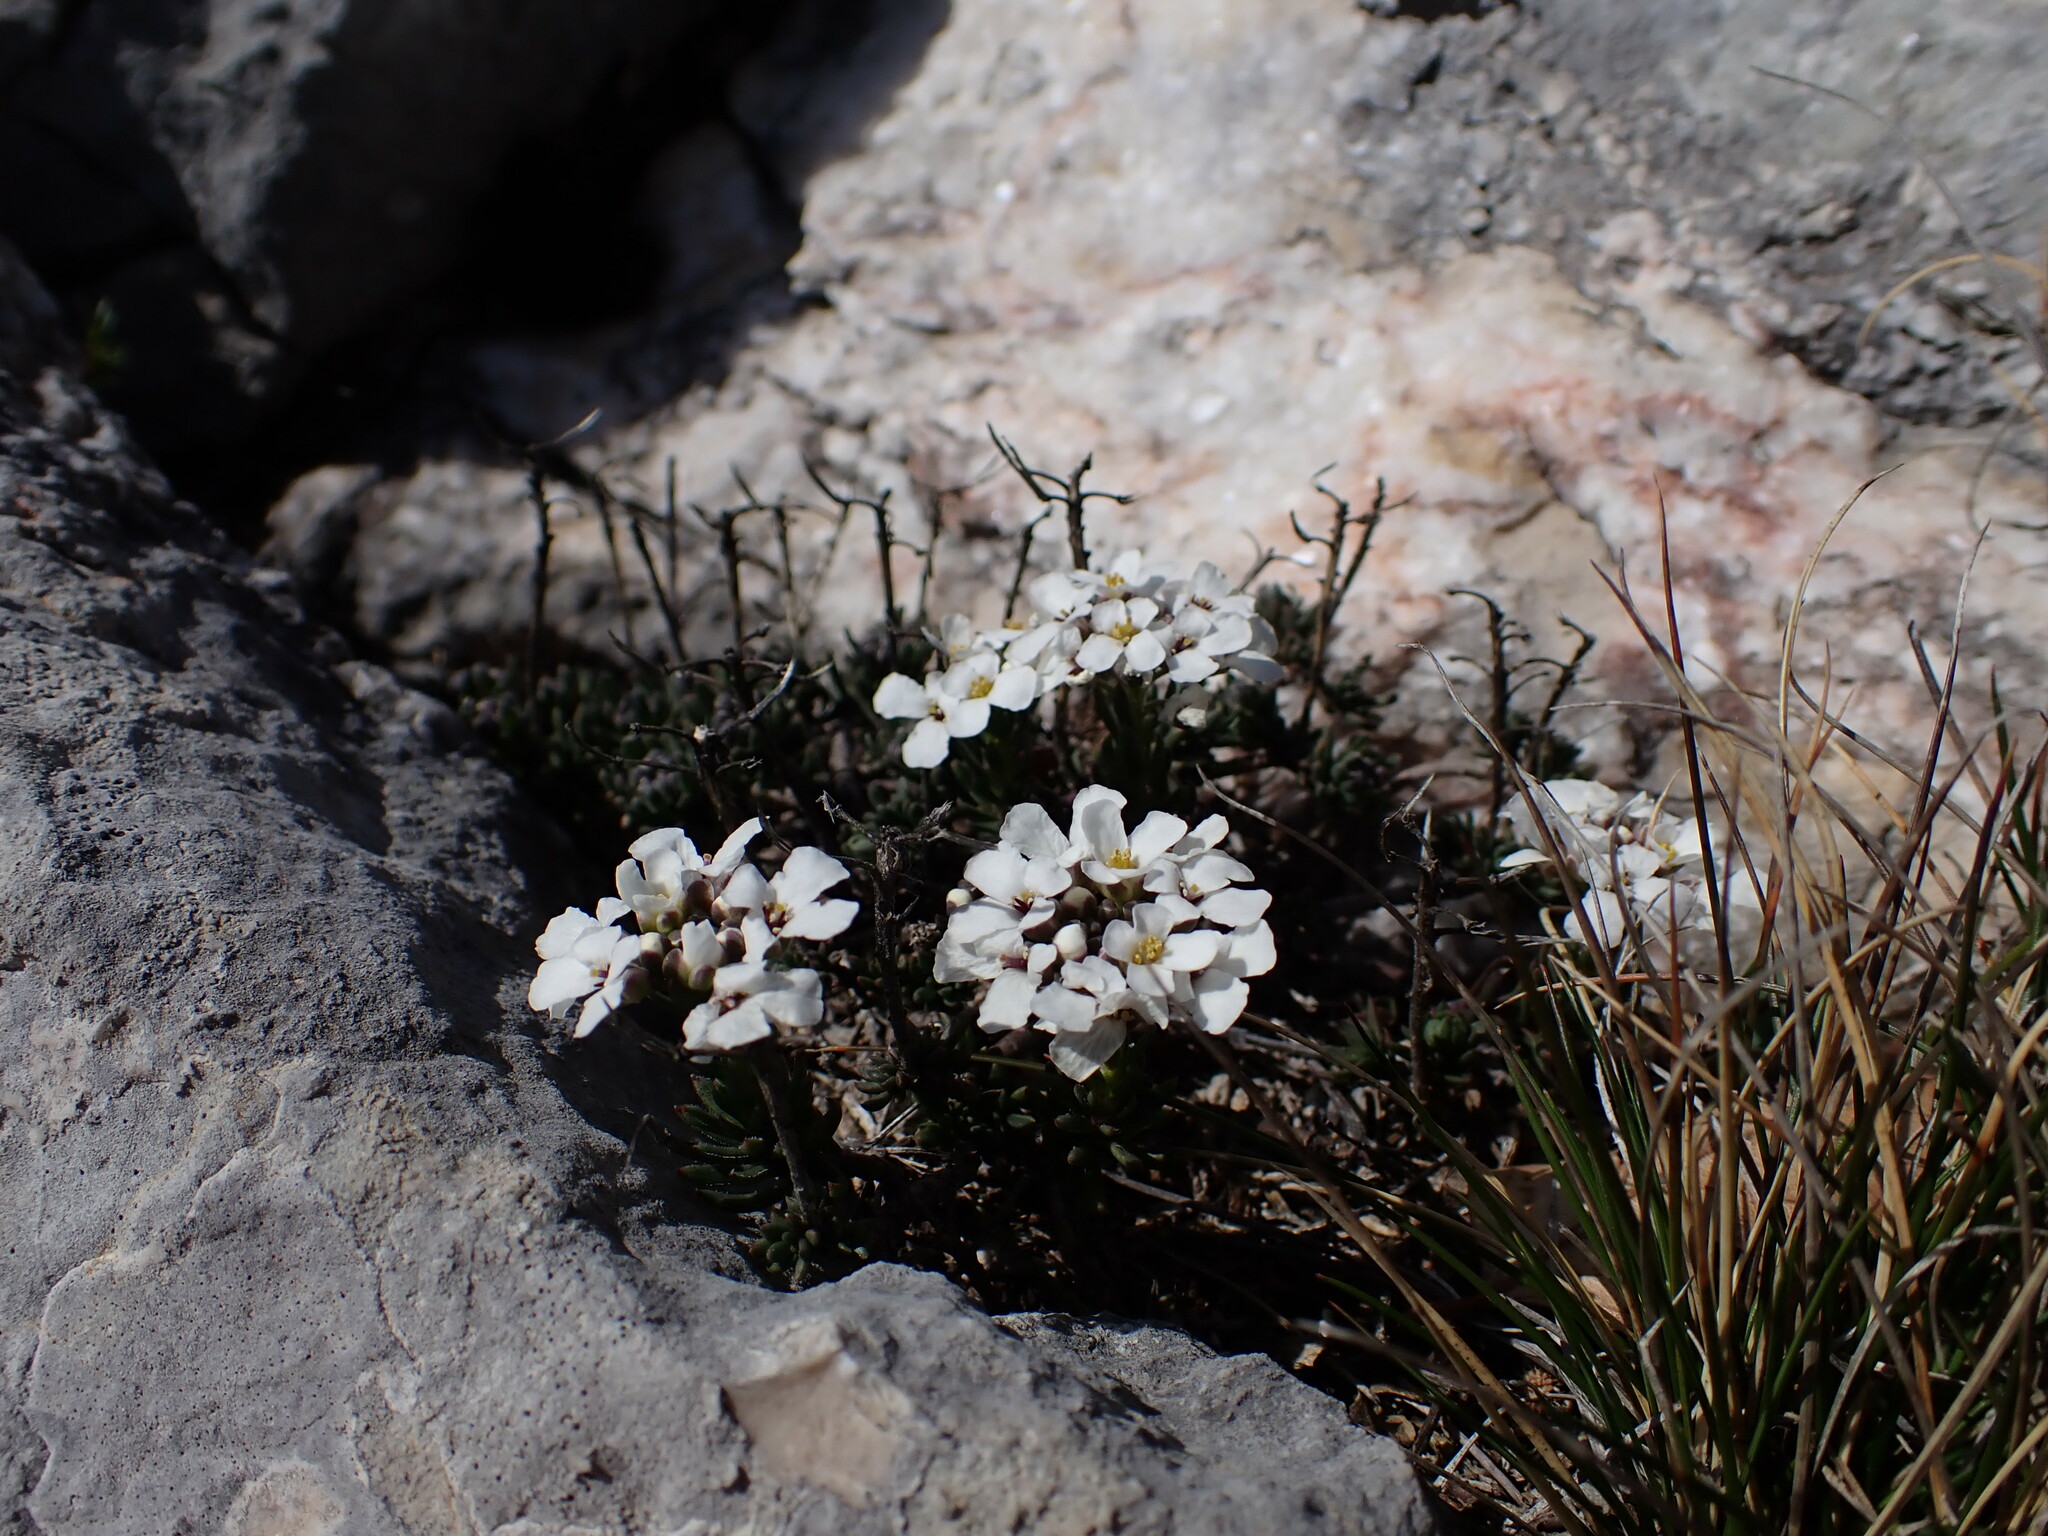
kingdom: Plantae
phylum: Tracheophyta
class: Magnoliopsida
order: Brassicales
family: Brassicaceae
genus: Iberis
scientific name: Iberis saxatilis
